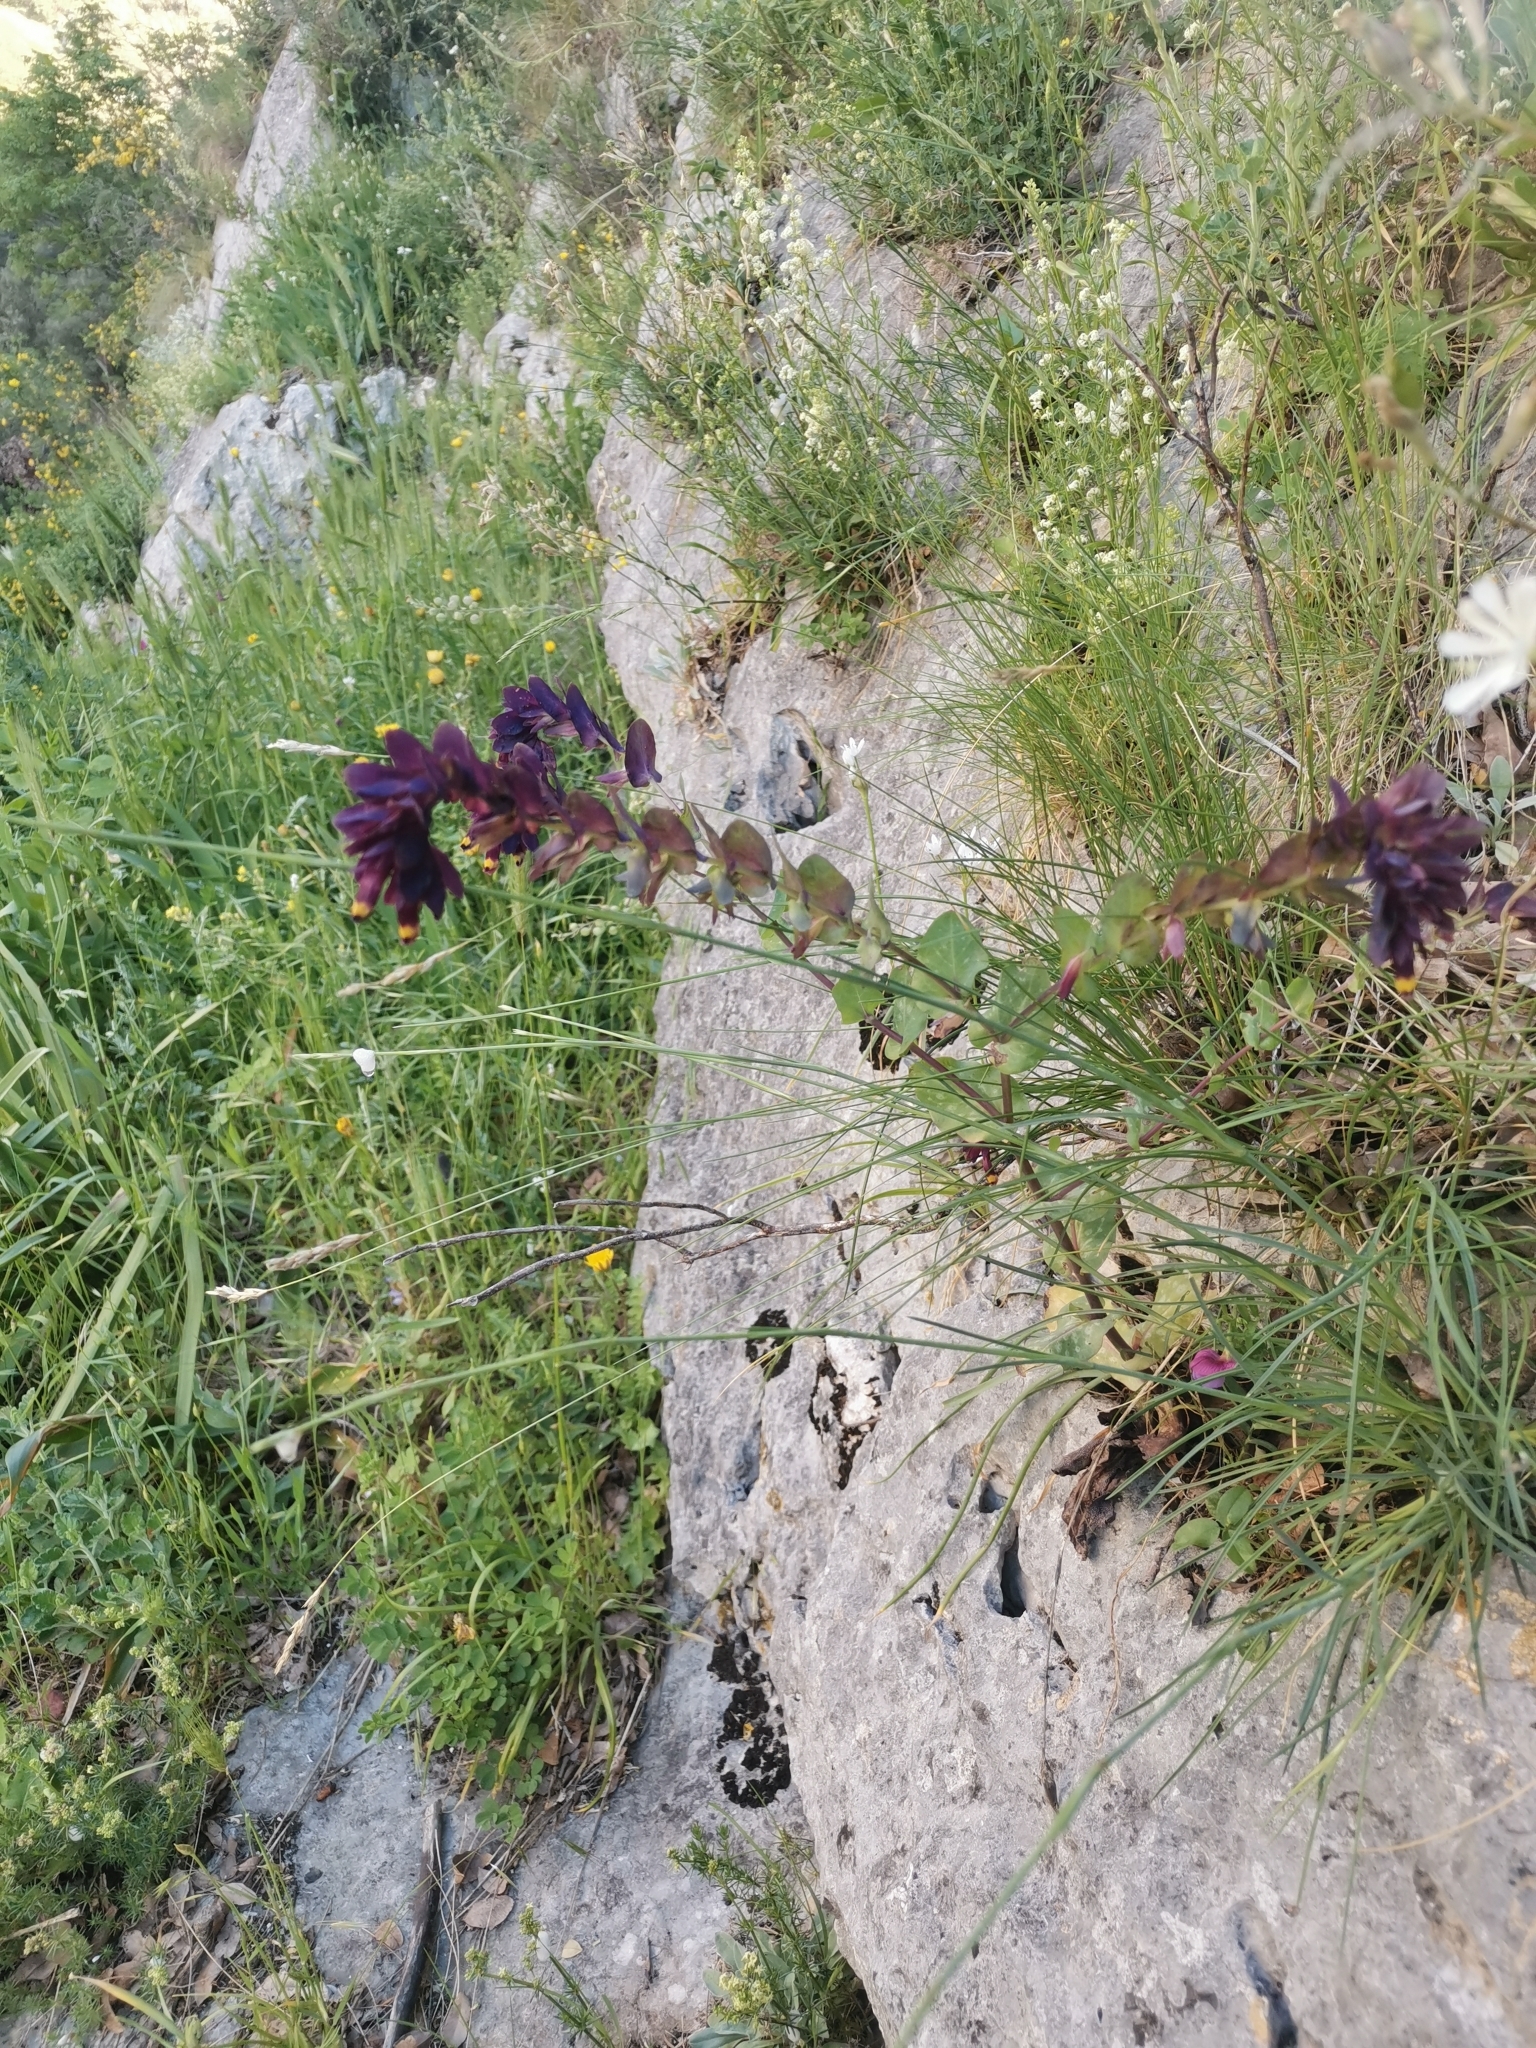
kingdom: Plantae
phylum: Tracheophyta
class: Magnoliopsida
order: Boraginales
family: Boraginaceae
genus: Cerinthe
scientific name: Cerinthe retorta
